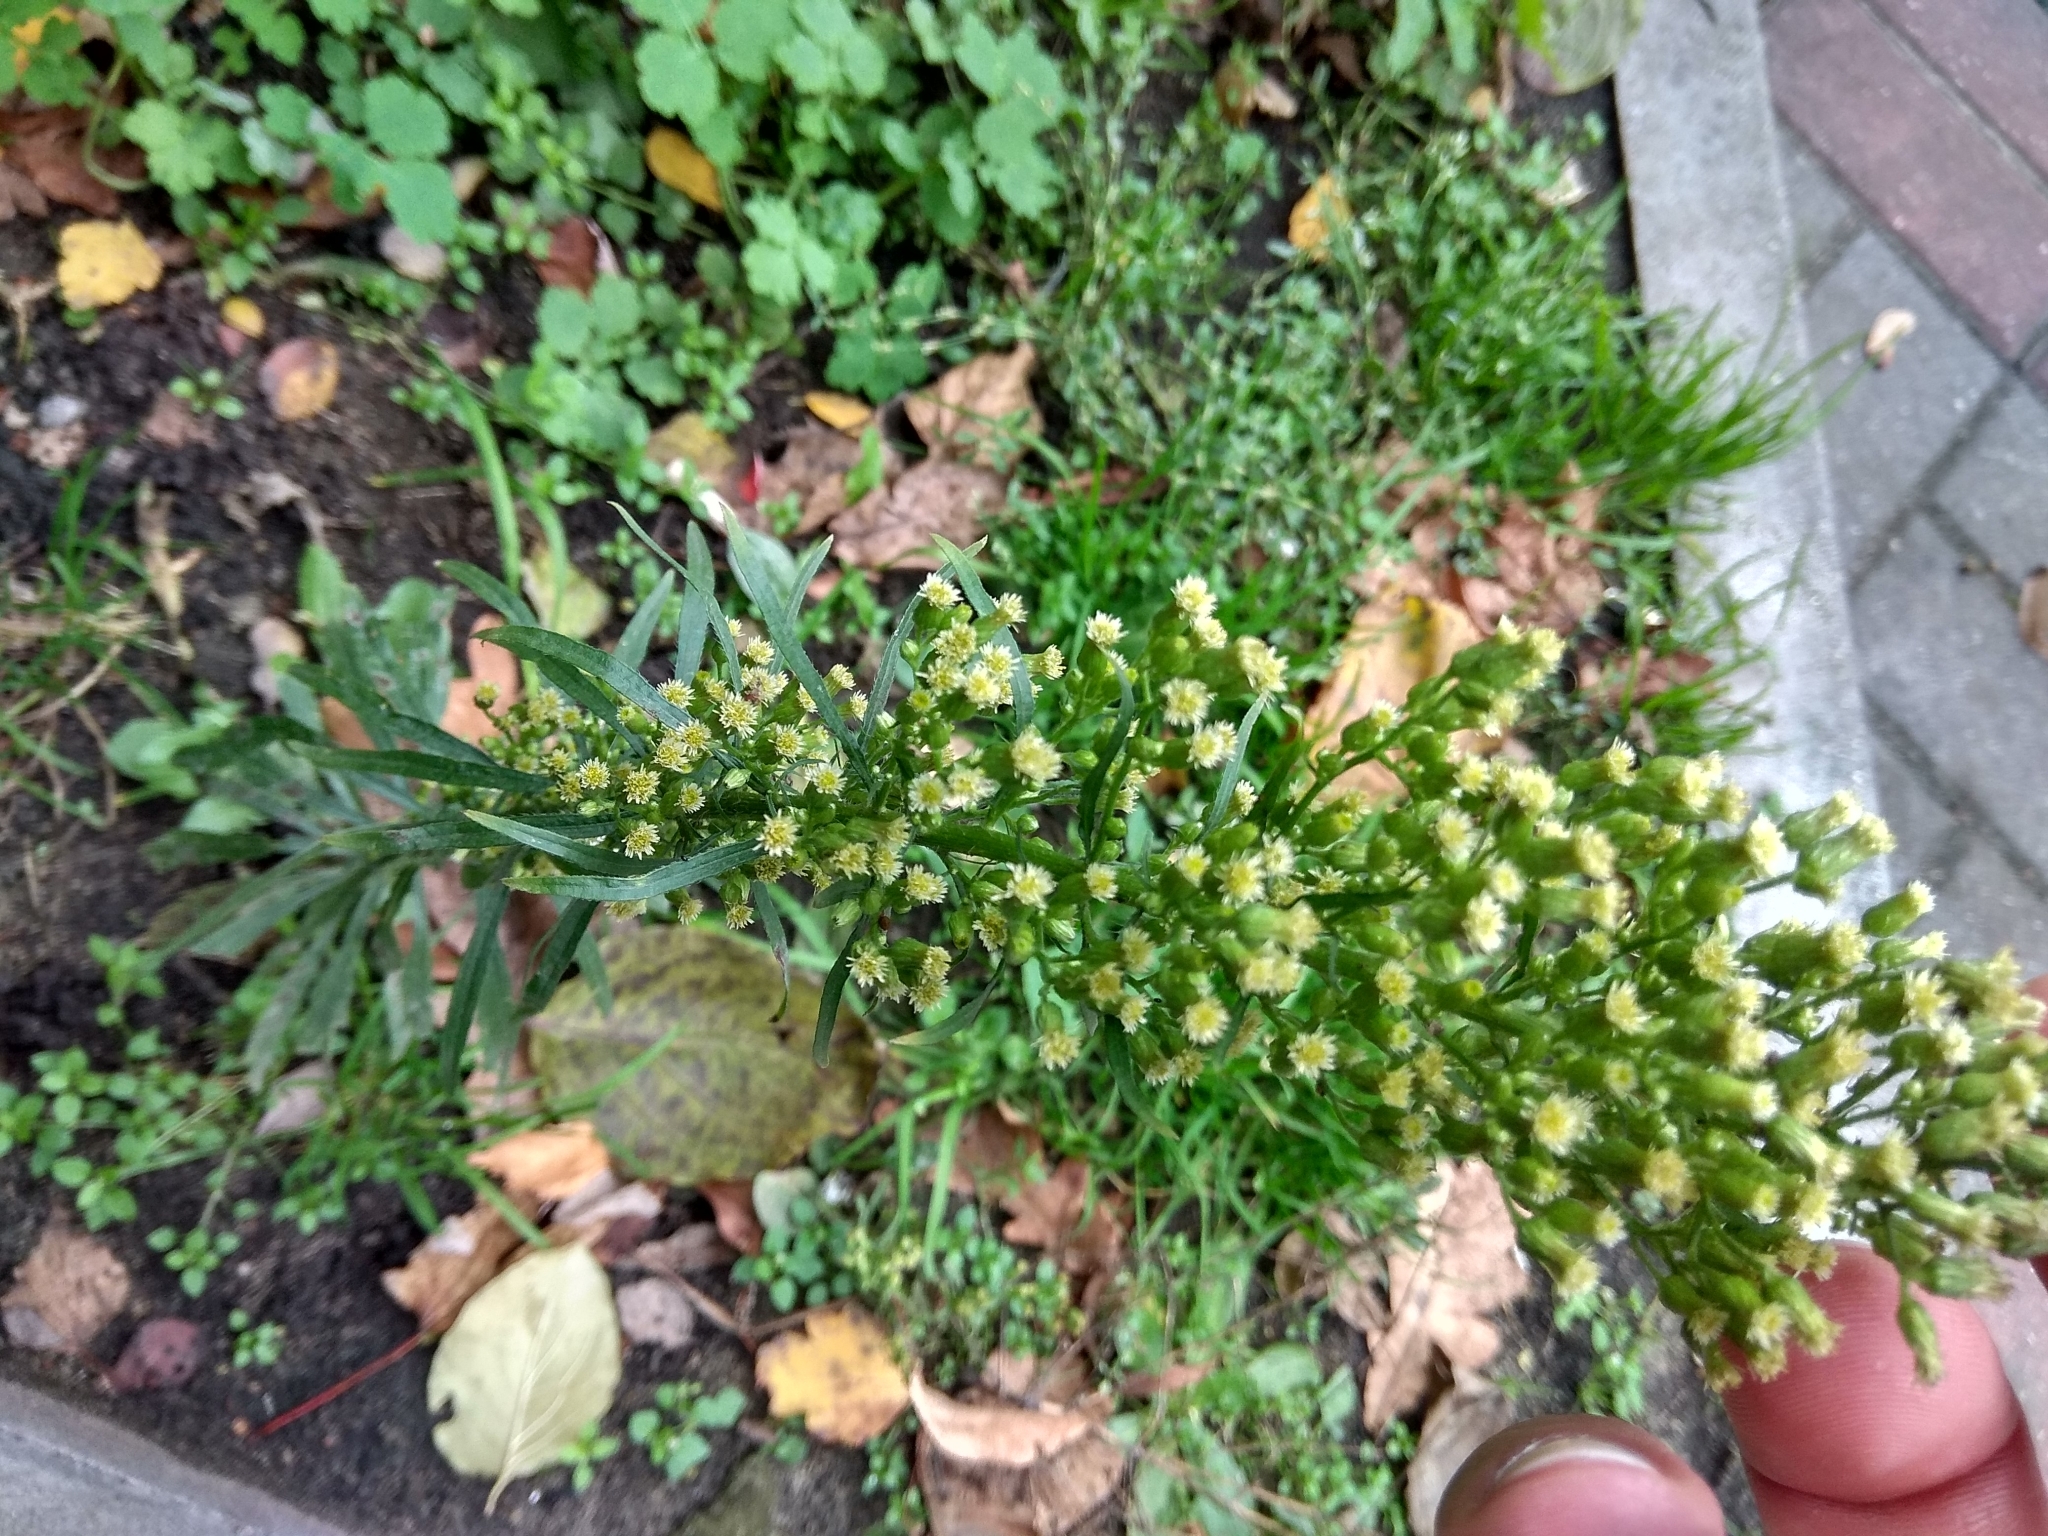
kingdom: Plantae
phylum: Tracheophyta
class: Magnoliopsida
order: Asterales
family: Asteraceae
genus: Erigeron
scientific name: Erigeron canadensis
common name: Canadian fleabane
